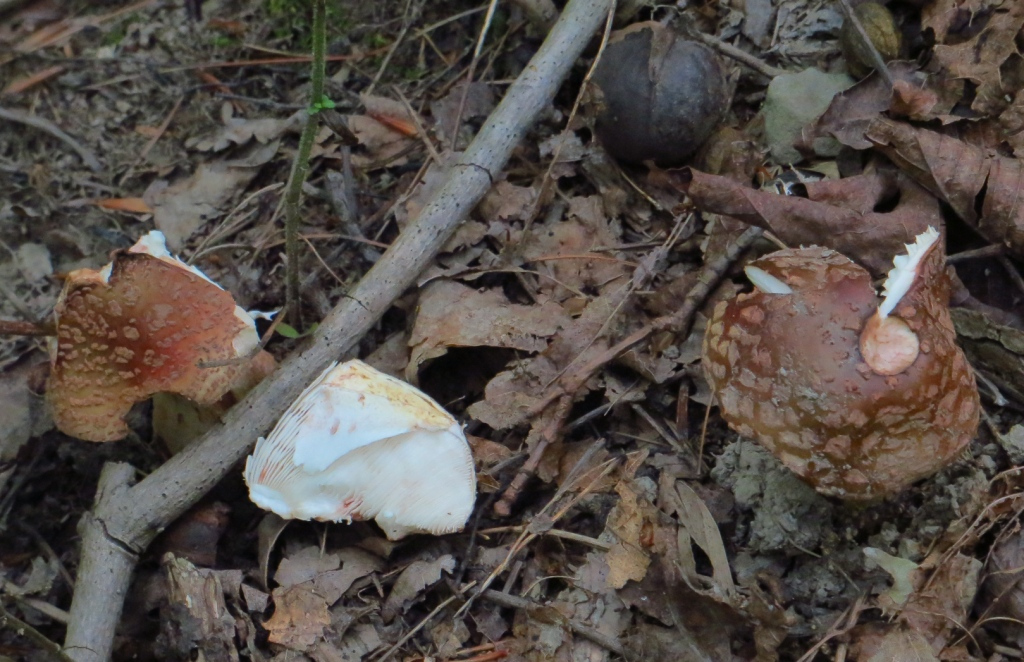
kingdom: Fungi
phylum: Basidiomycota
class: Agaricomycetes
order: Agaricales
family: Amanitaceae
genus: Amanita
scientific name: Amanita rubescens
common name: Blusher
